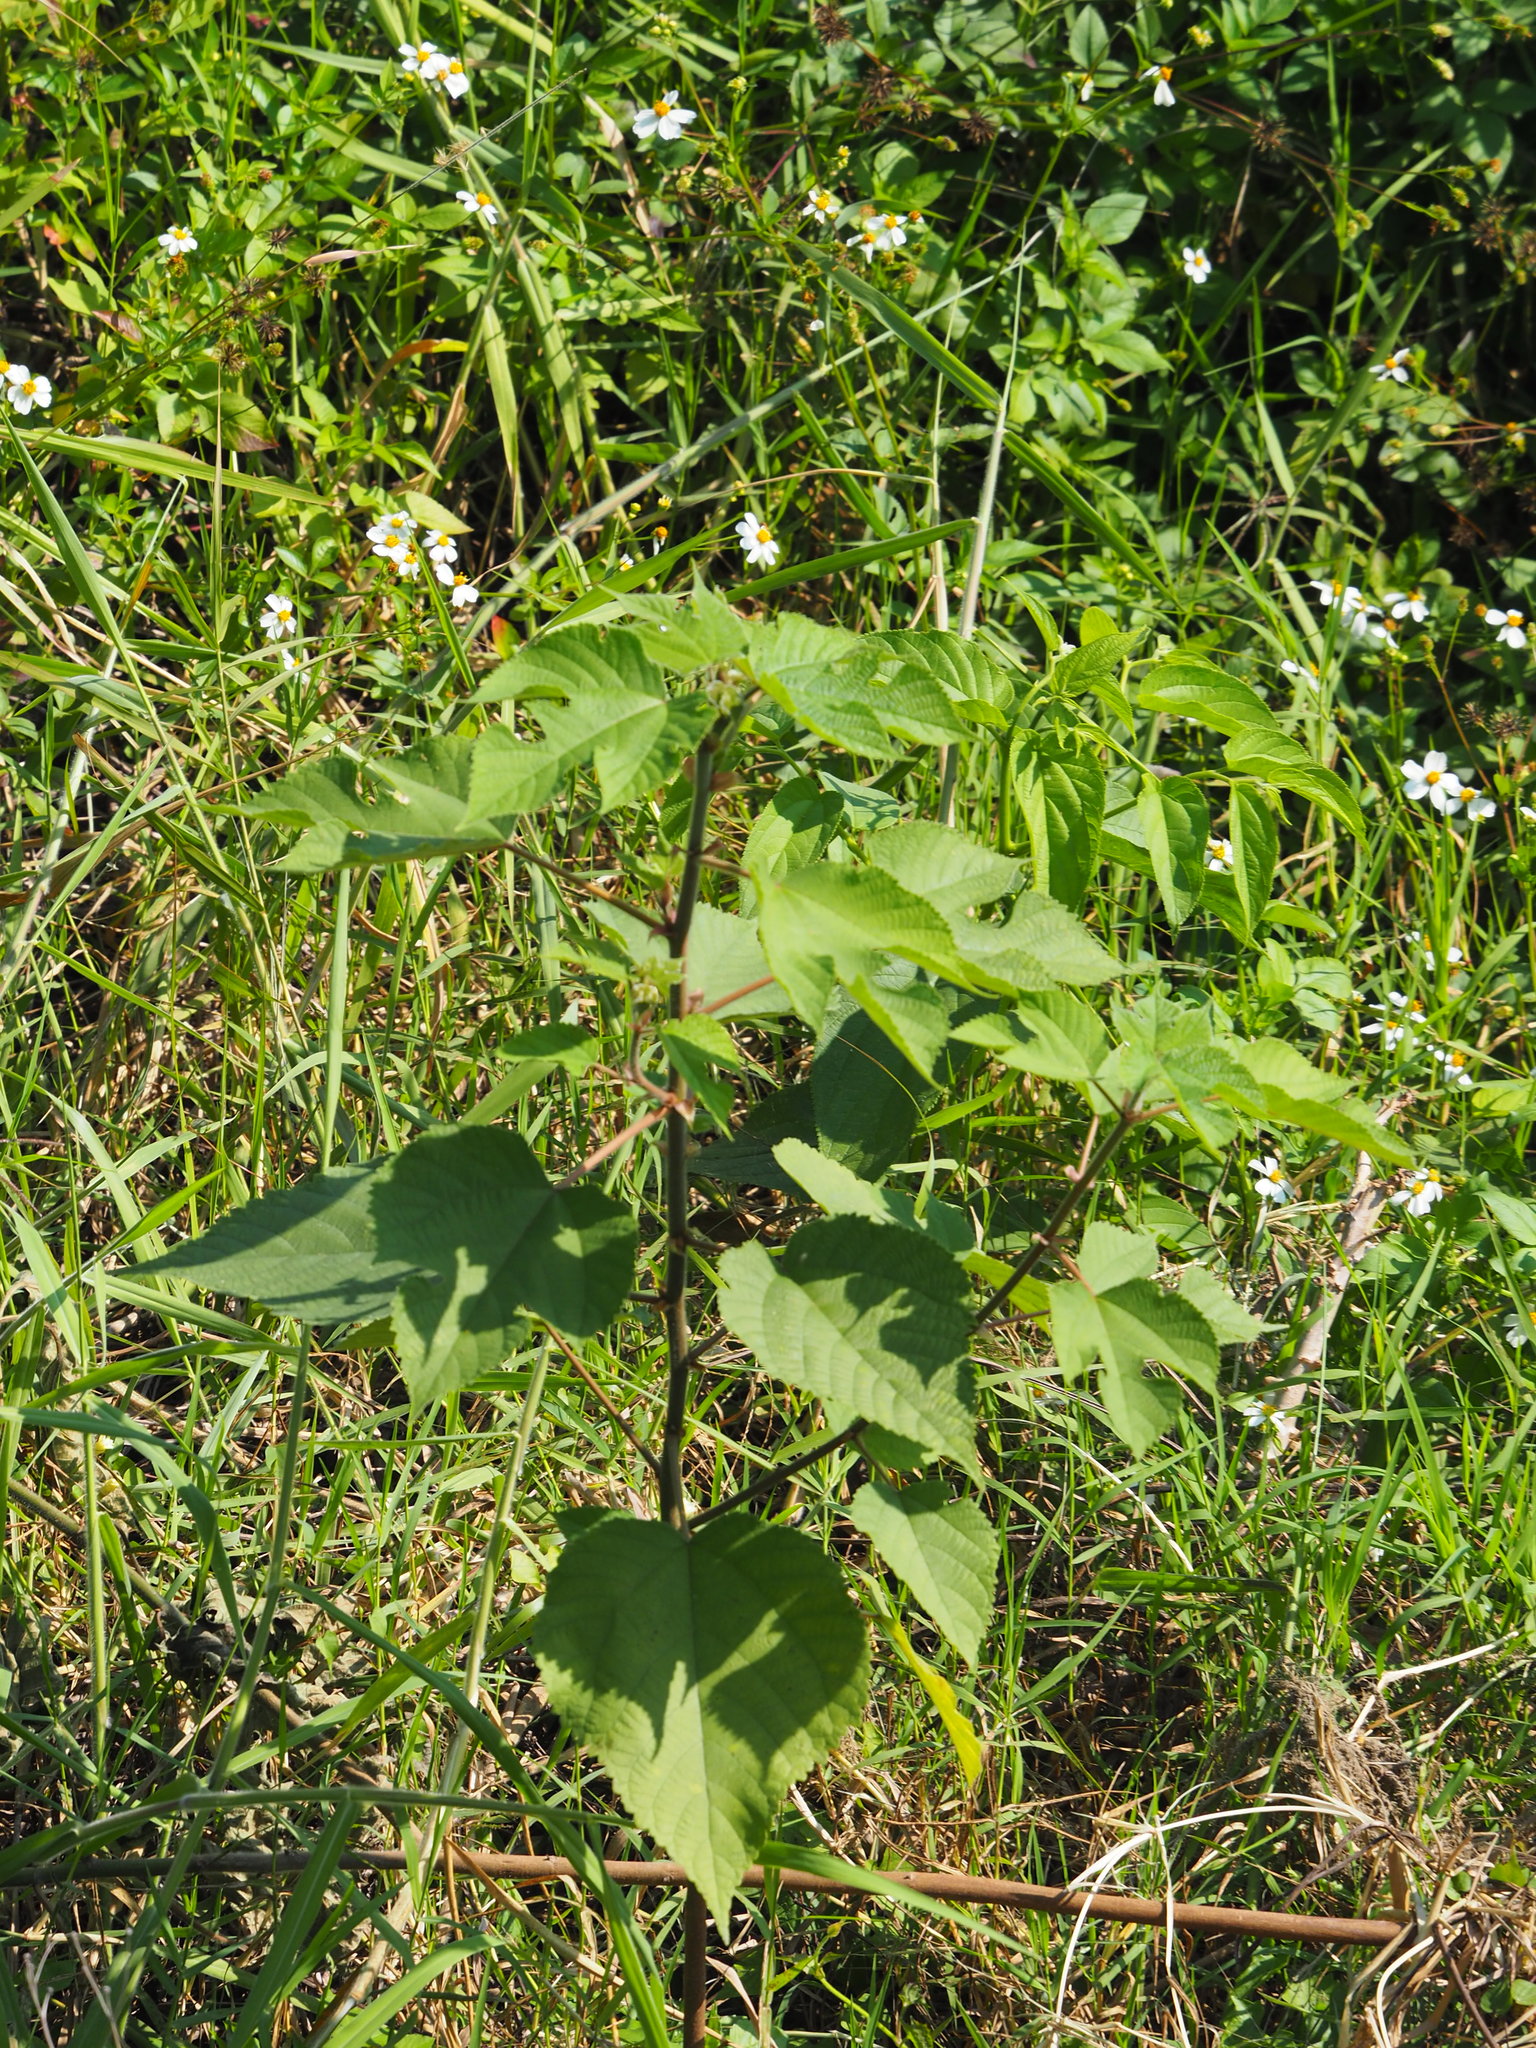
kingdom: Plantae
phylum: Tracheophyta
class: Magnoliopsida
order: Rosales
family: Moraceae
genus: Broussonetia
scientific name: Broussonetia papyrifera
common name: Paper mulberry
